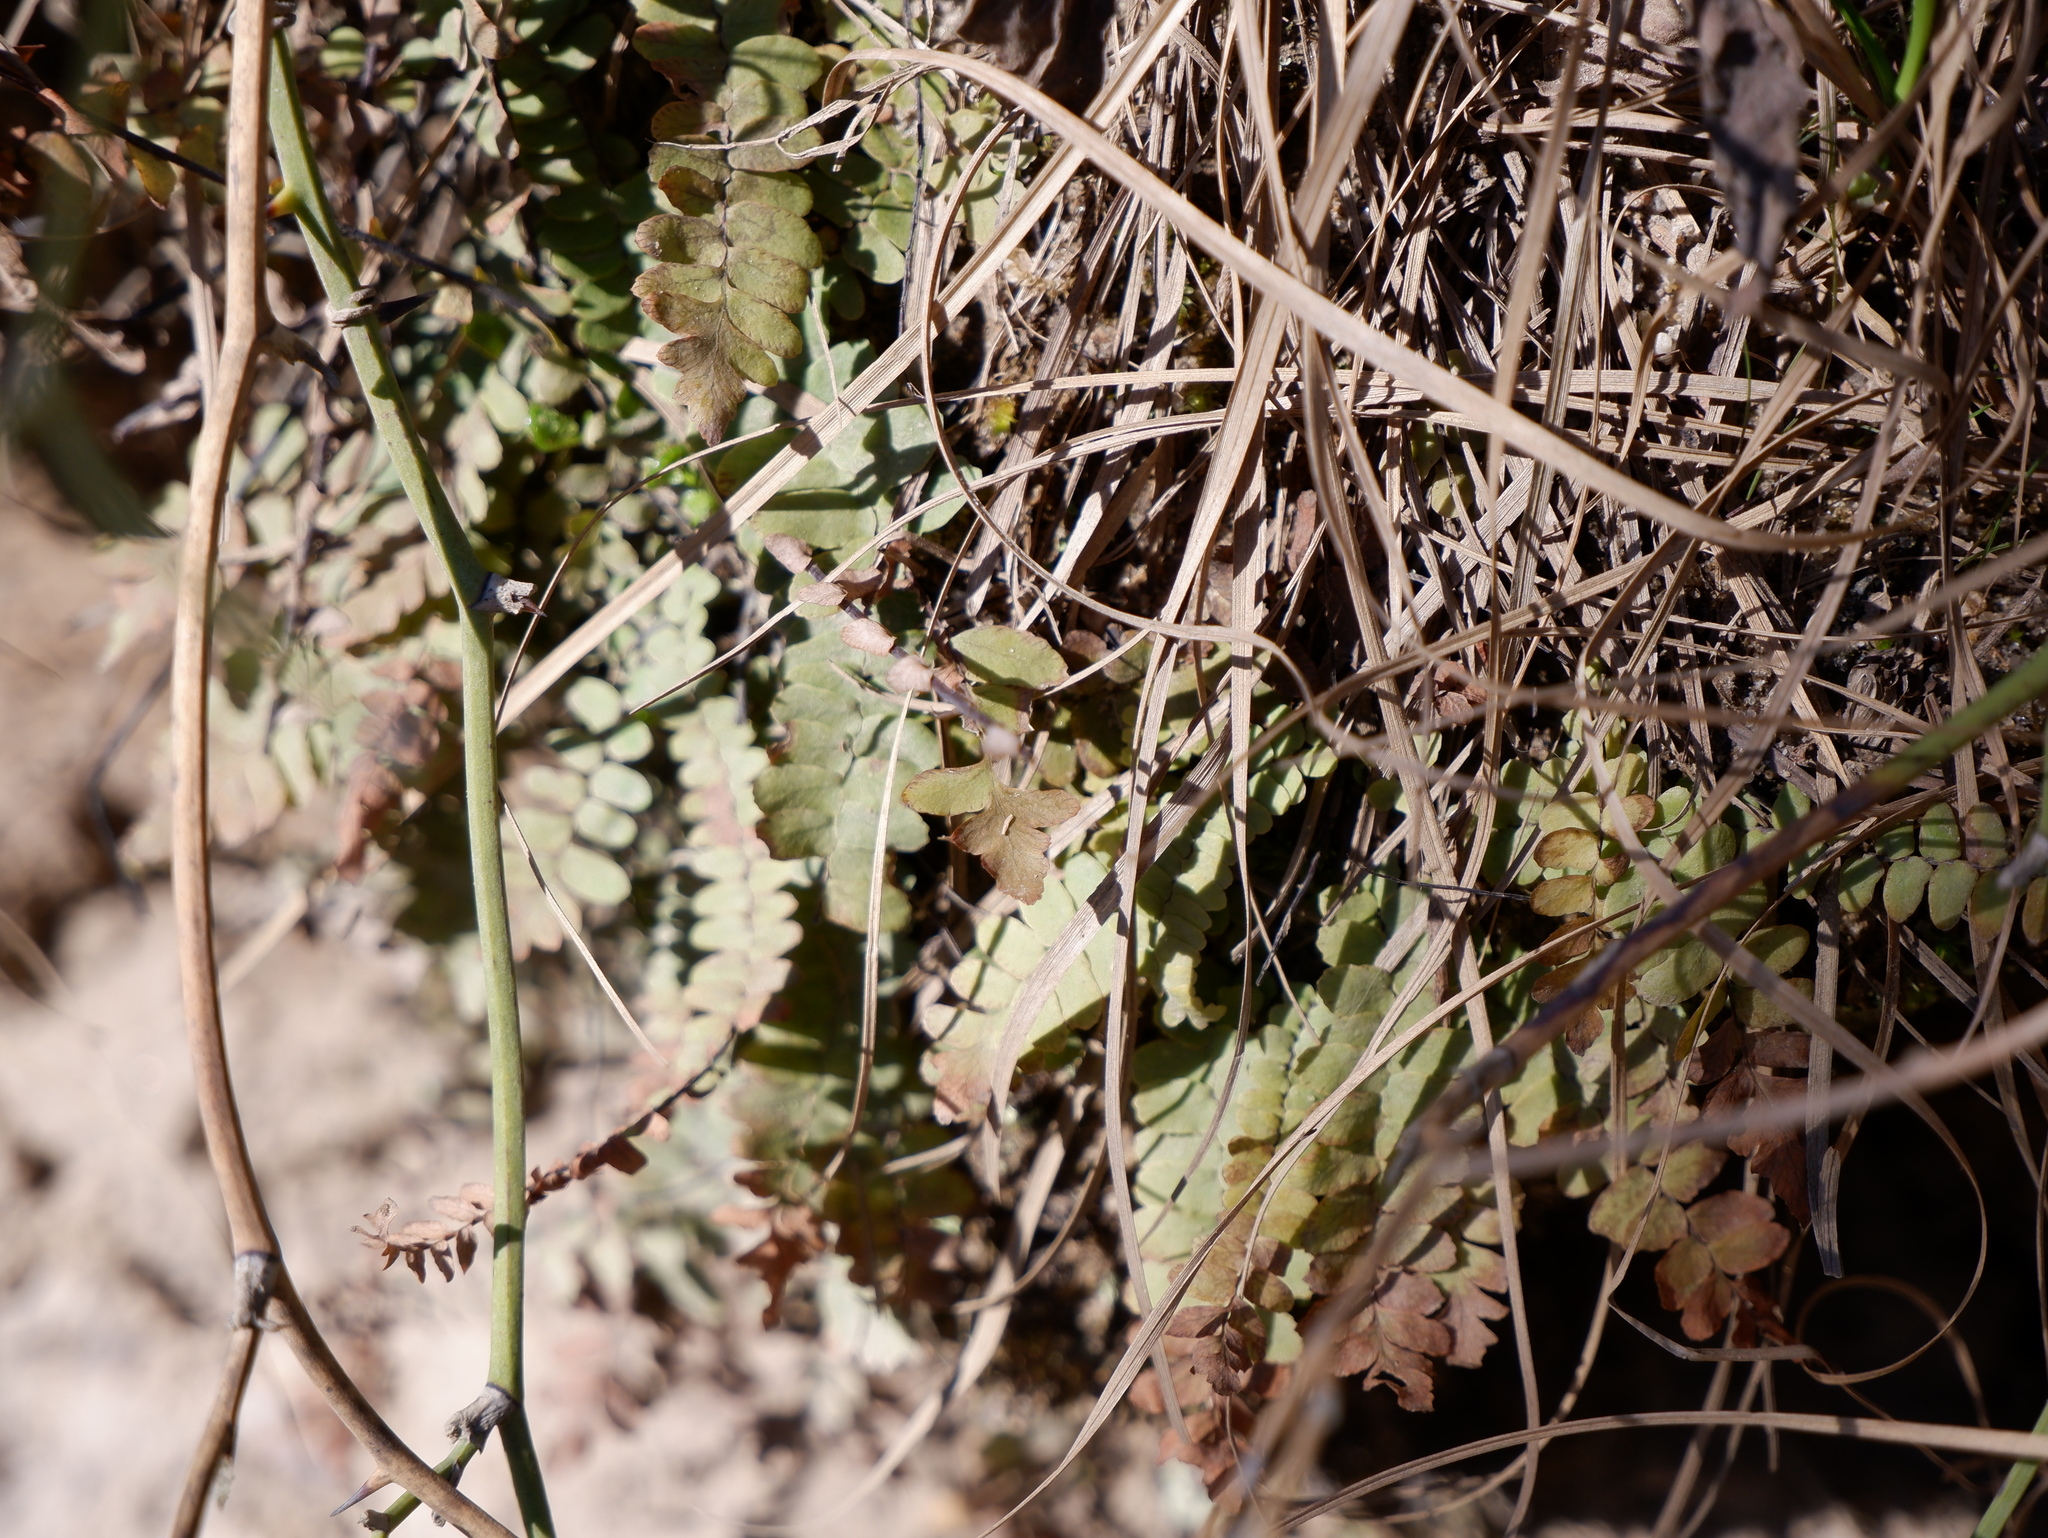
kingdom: Plantae
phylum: Tracheophyta
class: Polypodiopsida
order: Polypodiales
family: Aspleniaceae
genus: Asplenium
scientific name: Asplenium platyneuron
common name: Ebony spleenwort
